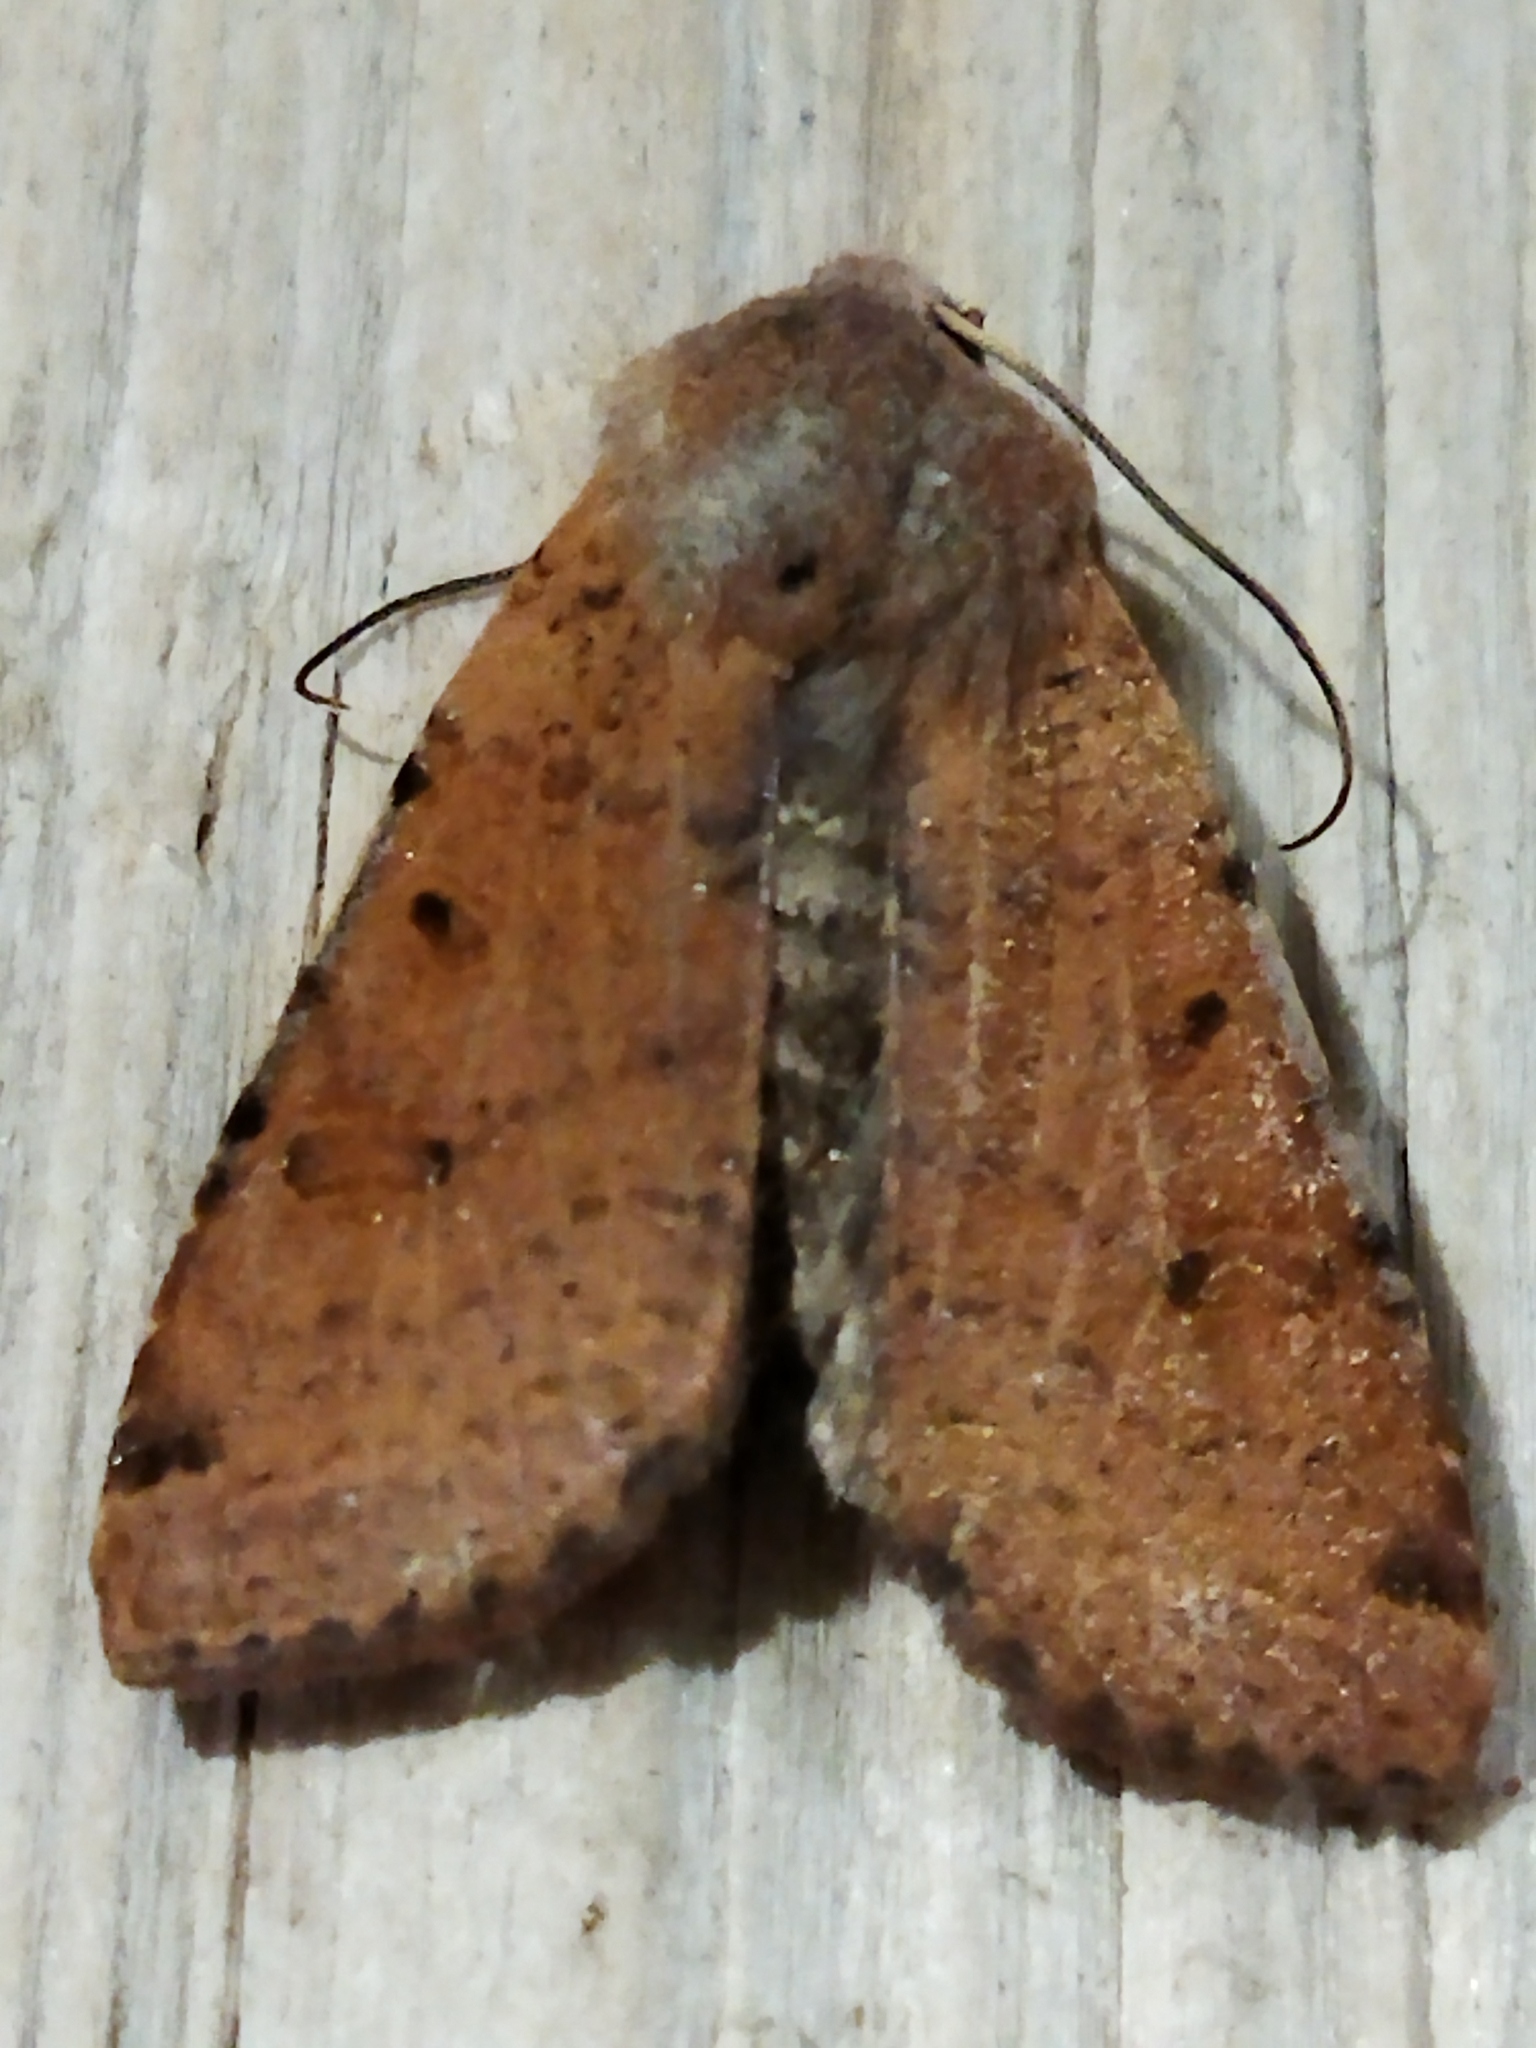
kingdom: Animalia
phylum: Arthropoda
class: Insecta
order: Lepidoptera
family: Noctuidae
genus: Agrochola
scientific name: Agrochola lychnidis
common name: Beaded chestnut
